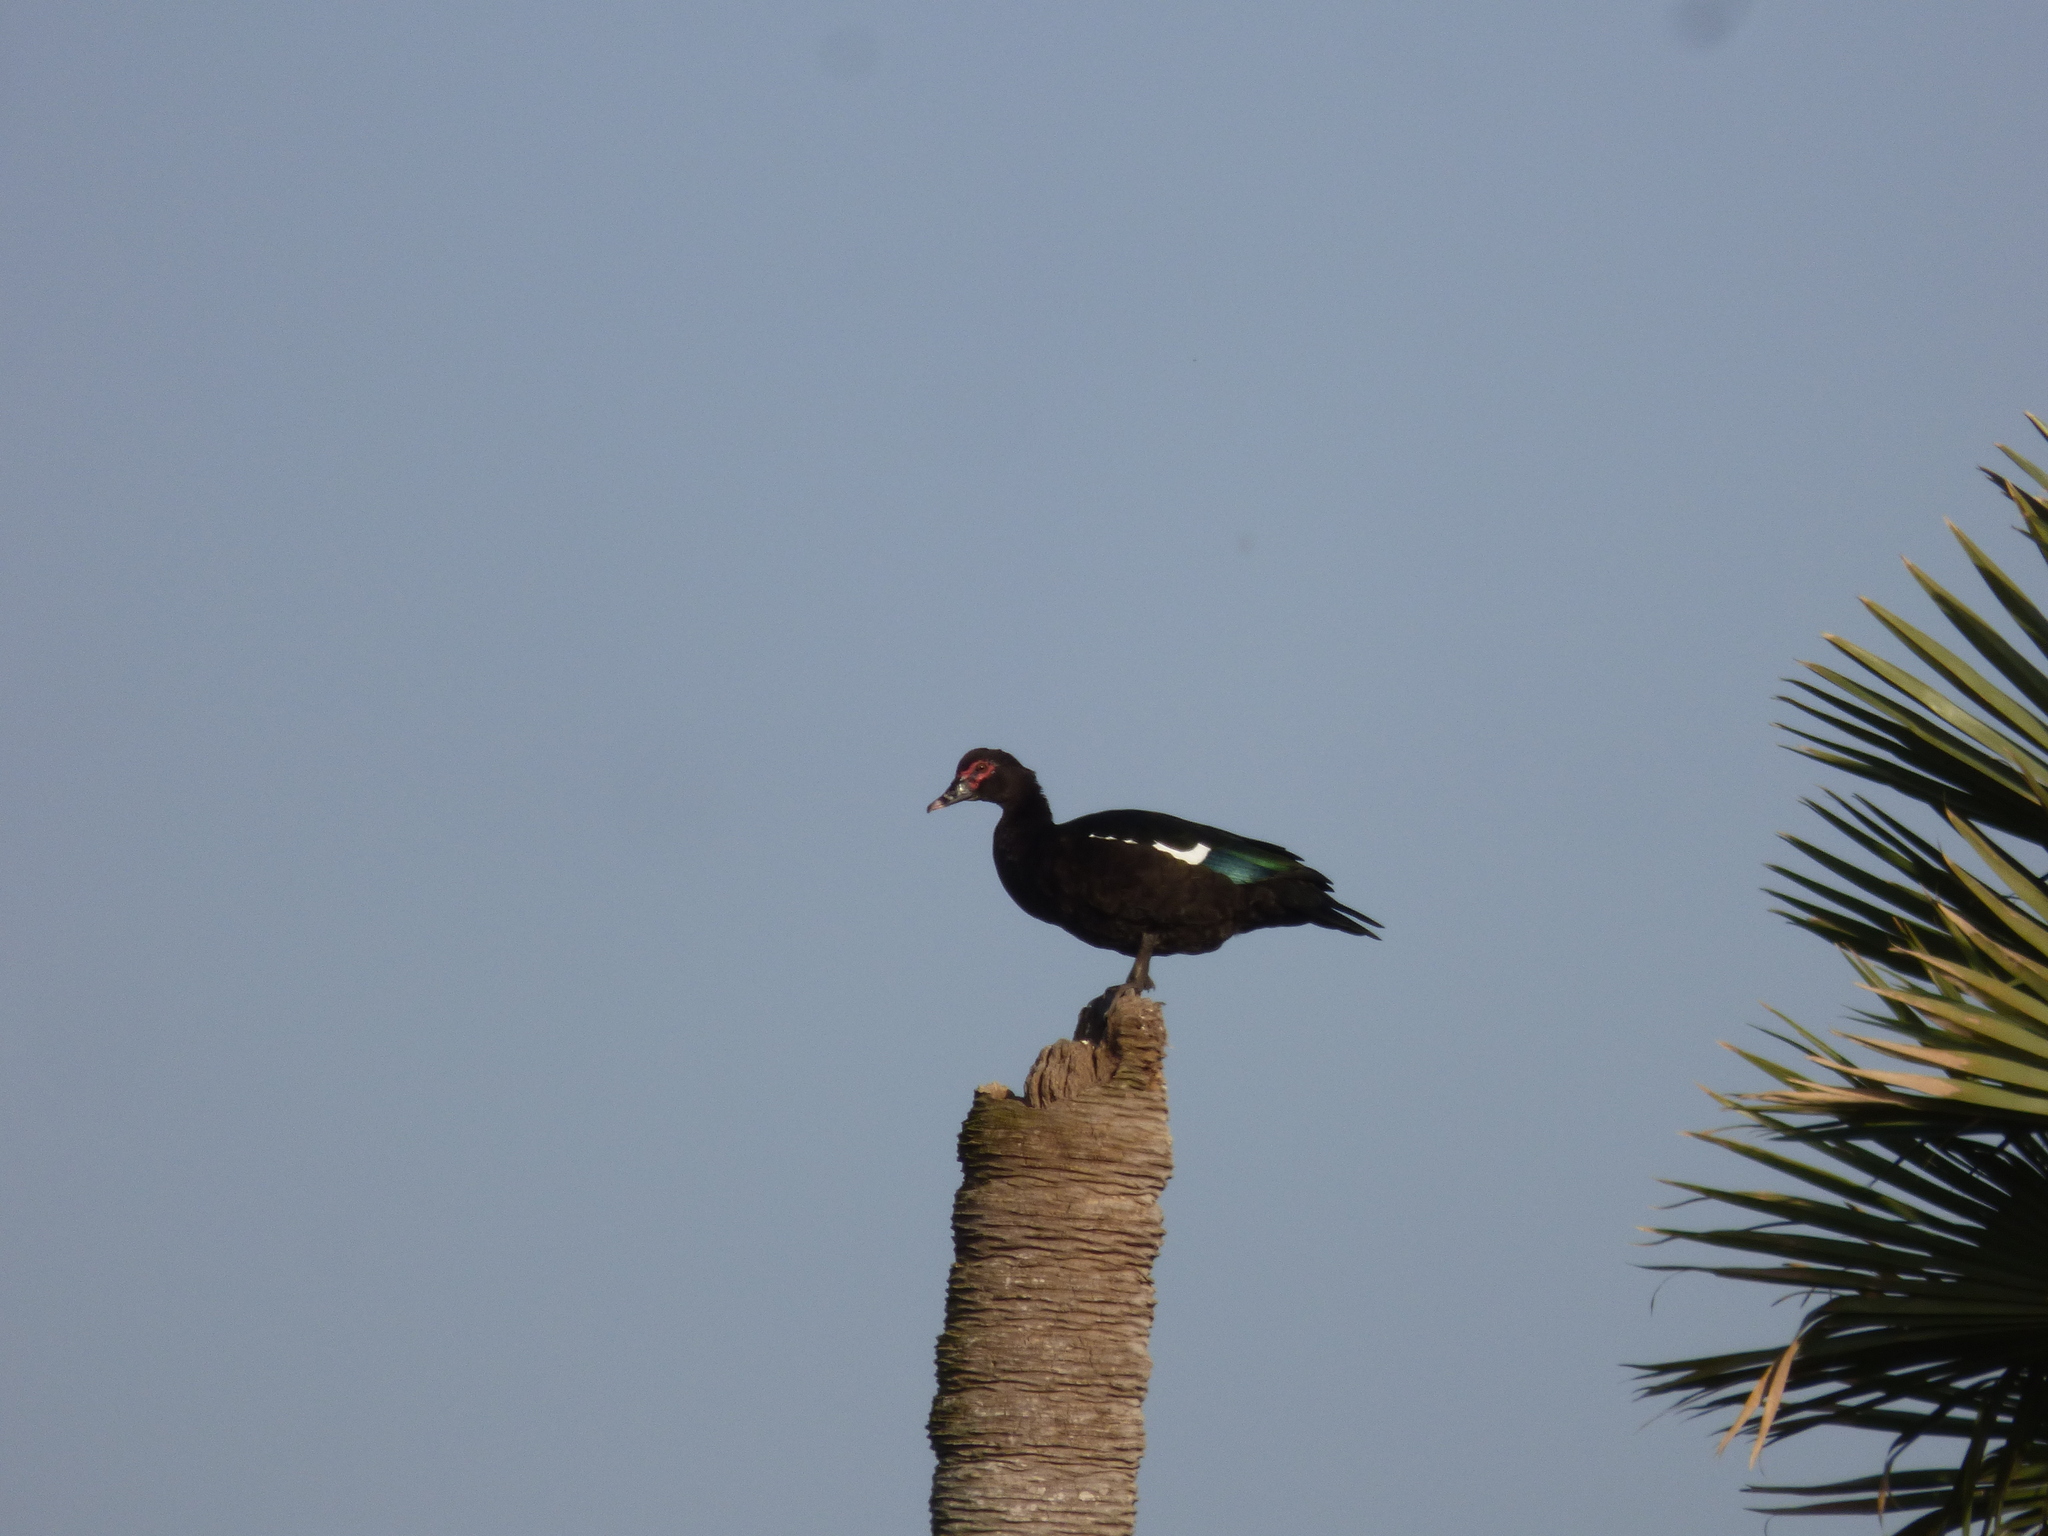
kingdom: Animalia
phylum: Chordata
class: Aves
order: Anseriformes
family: Anatidae
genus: Cairina
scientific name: Cairina moschata
